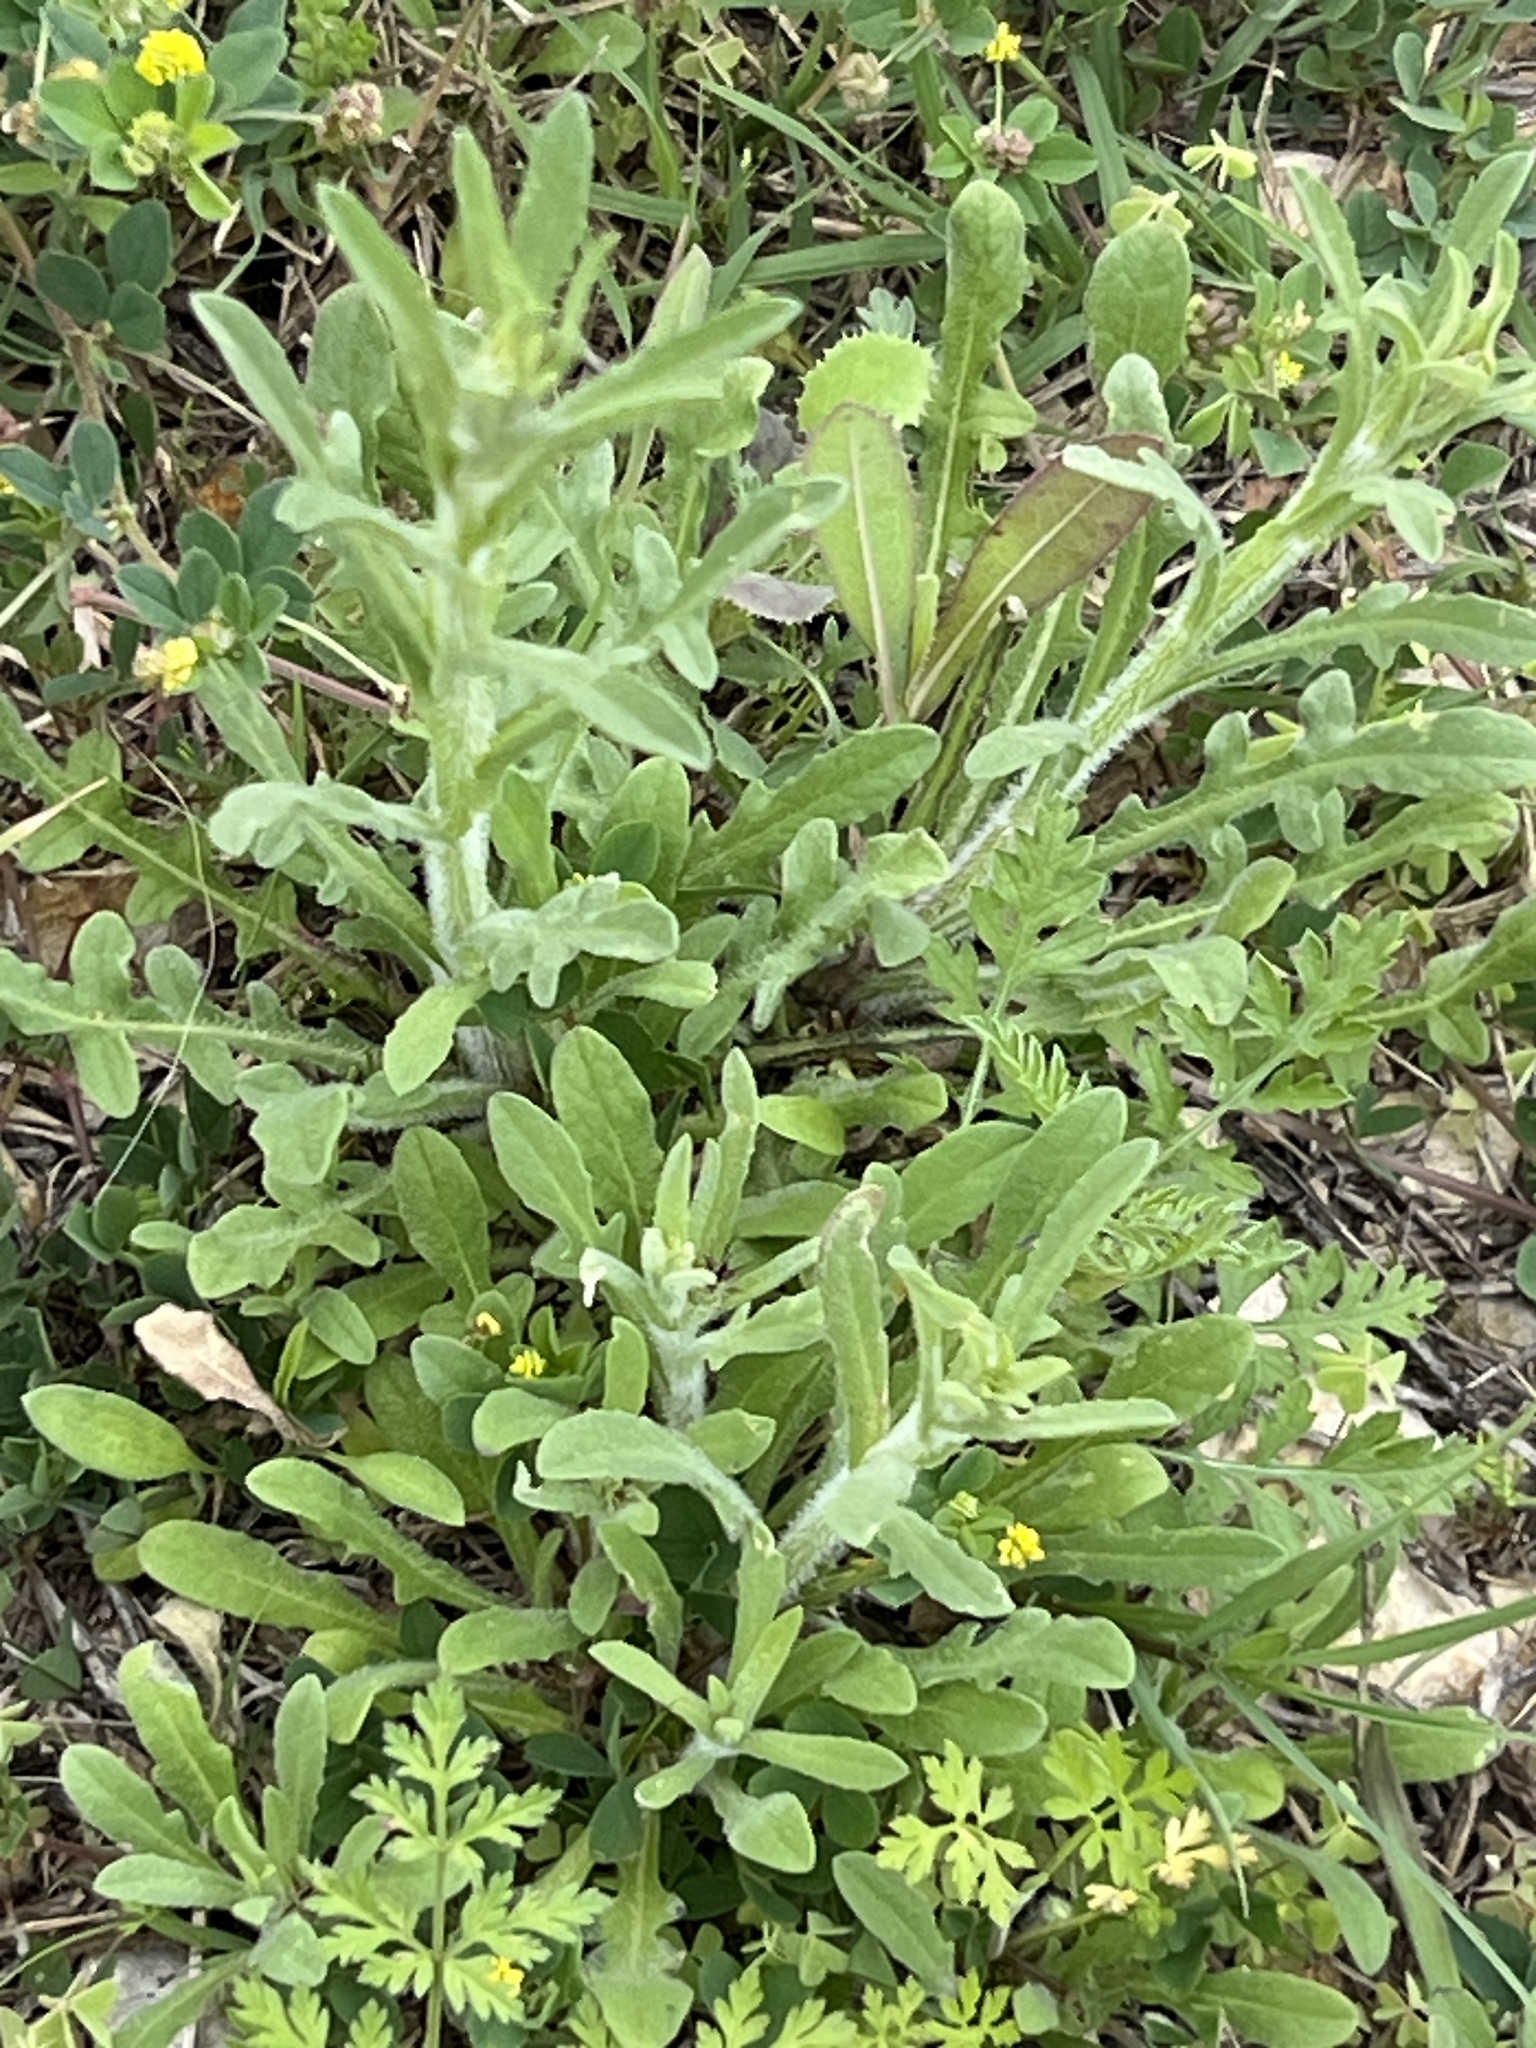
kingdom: Plantae
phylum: Tracheophyta
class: Magnoliopsida
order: Asterales
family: Asteraceae
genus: Centaurea
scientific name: Centaurea melitensis
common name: Maltese star-thistle
